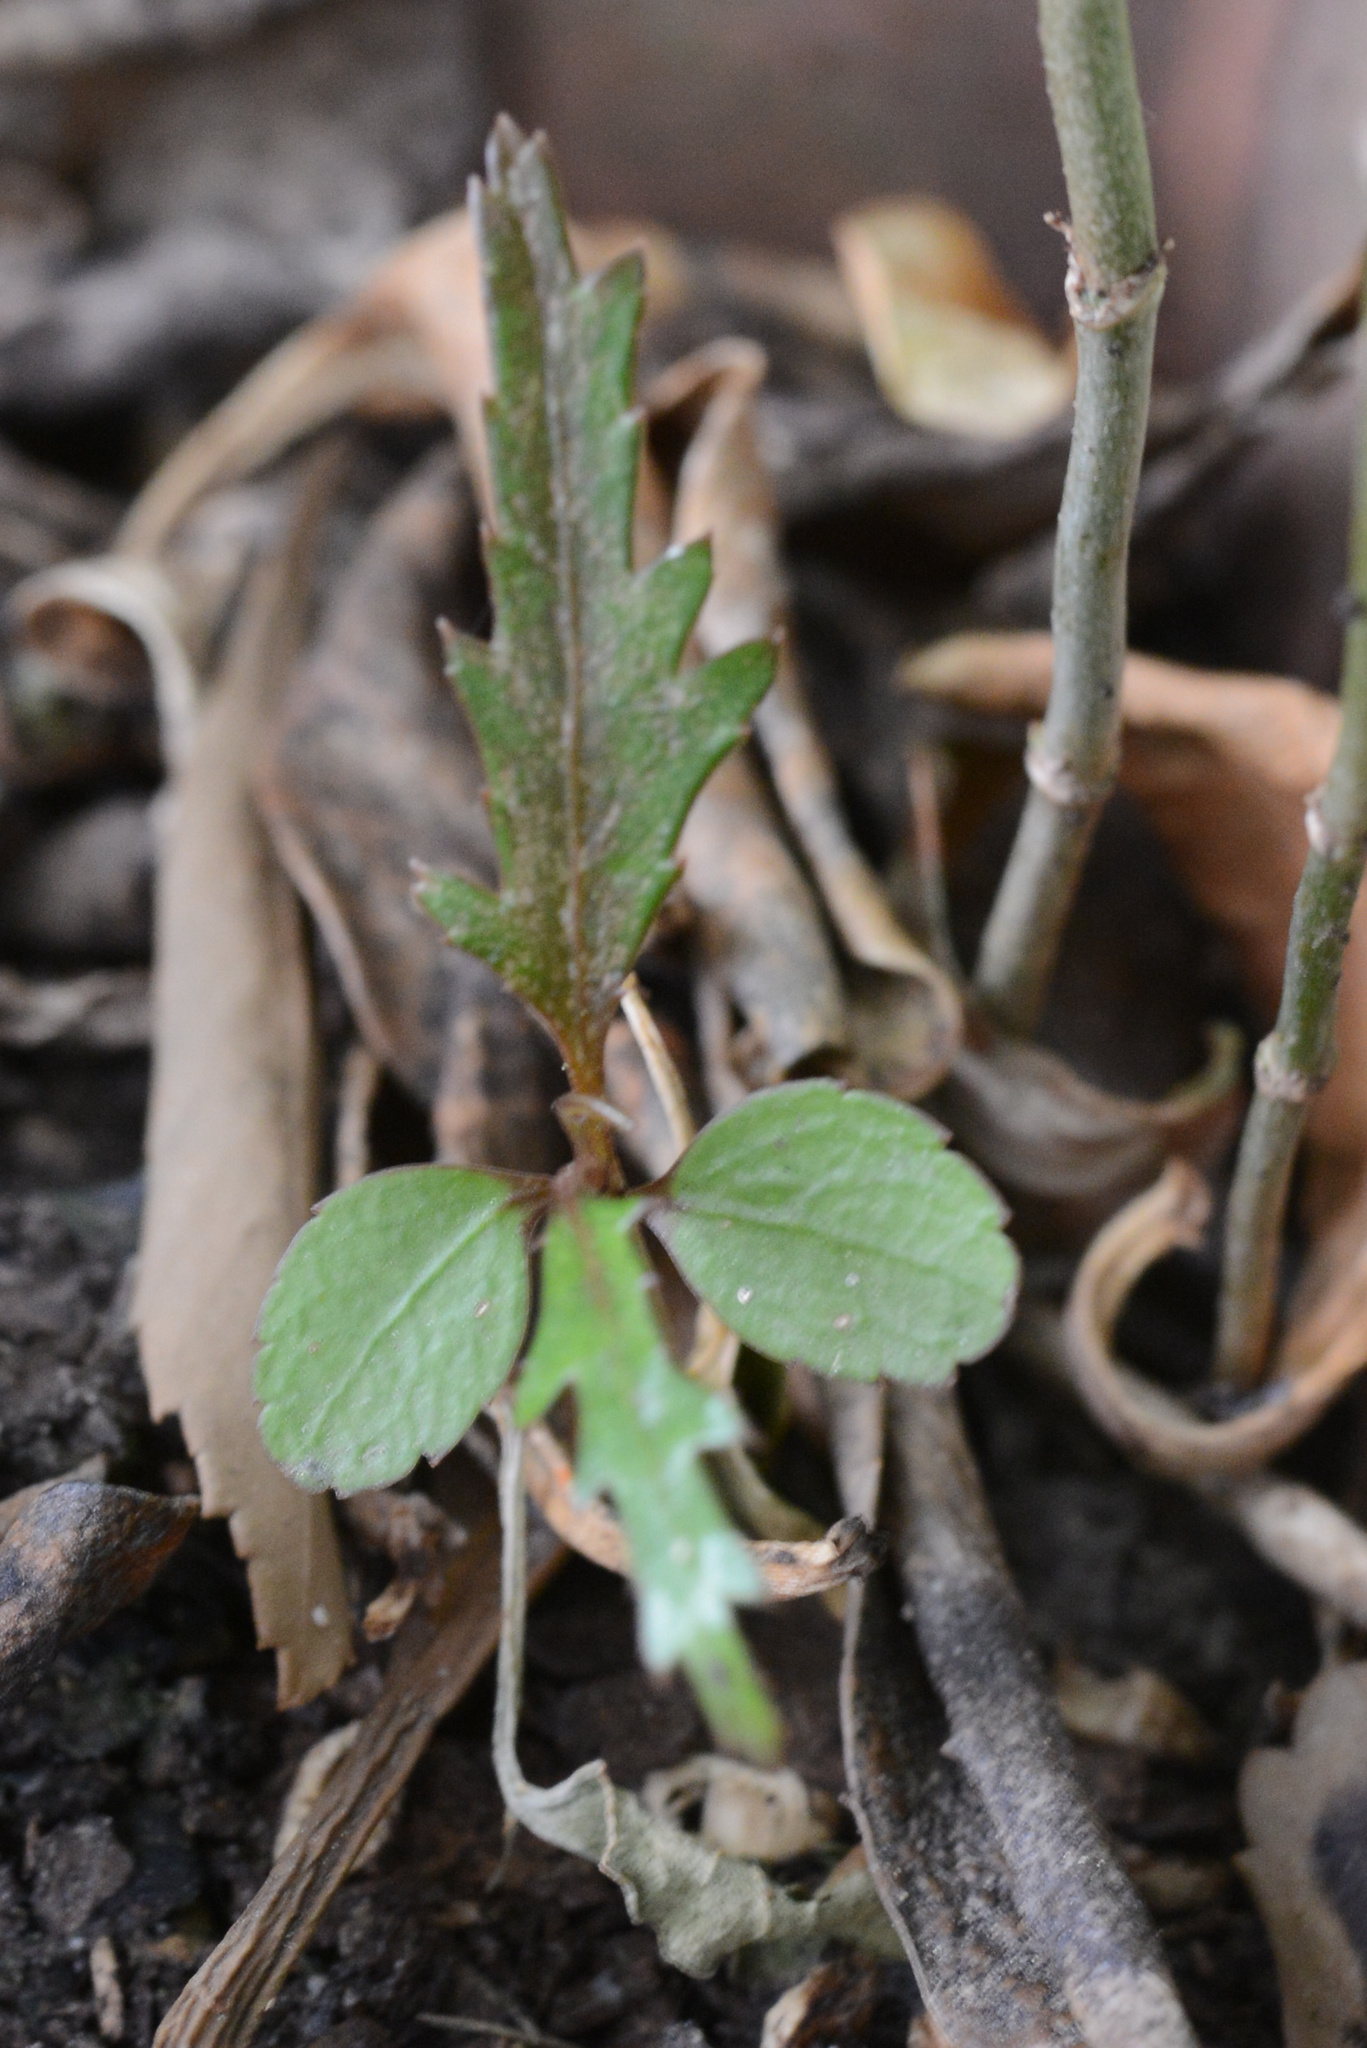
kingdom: Plantae
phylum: Tracheophyta
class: Magnoliopsida
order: Apiales
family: Araliaceae
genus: Pseudopanax
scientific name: Pseudopanax crassifolius
